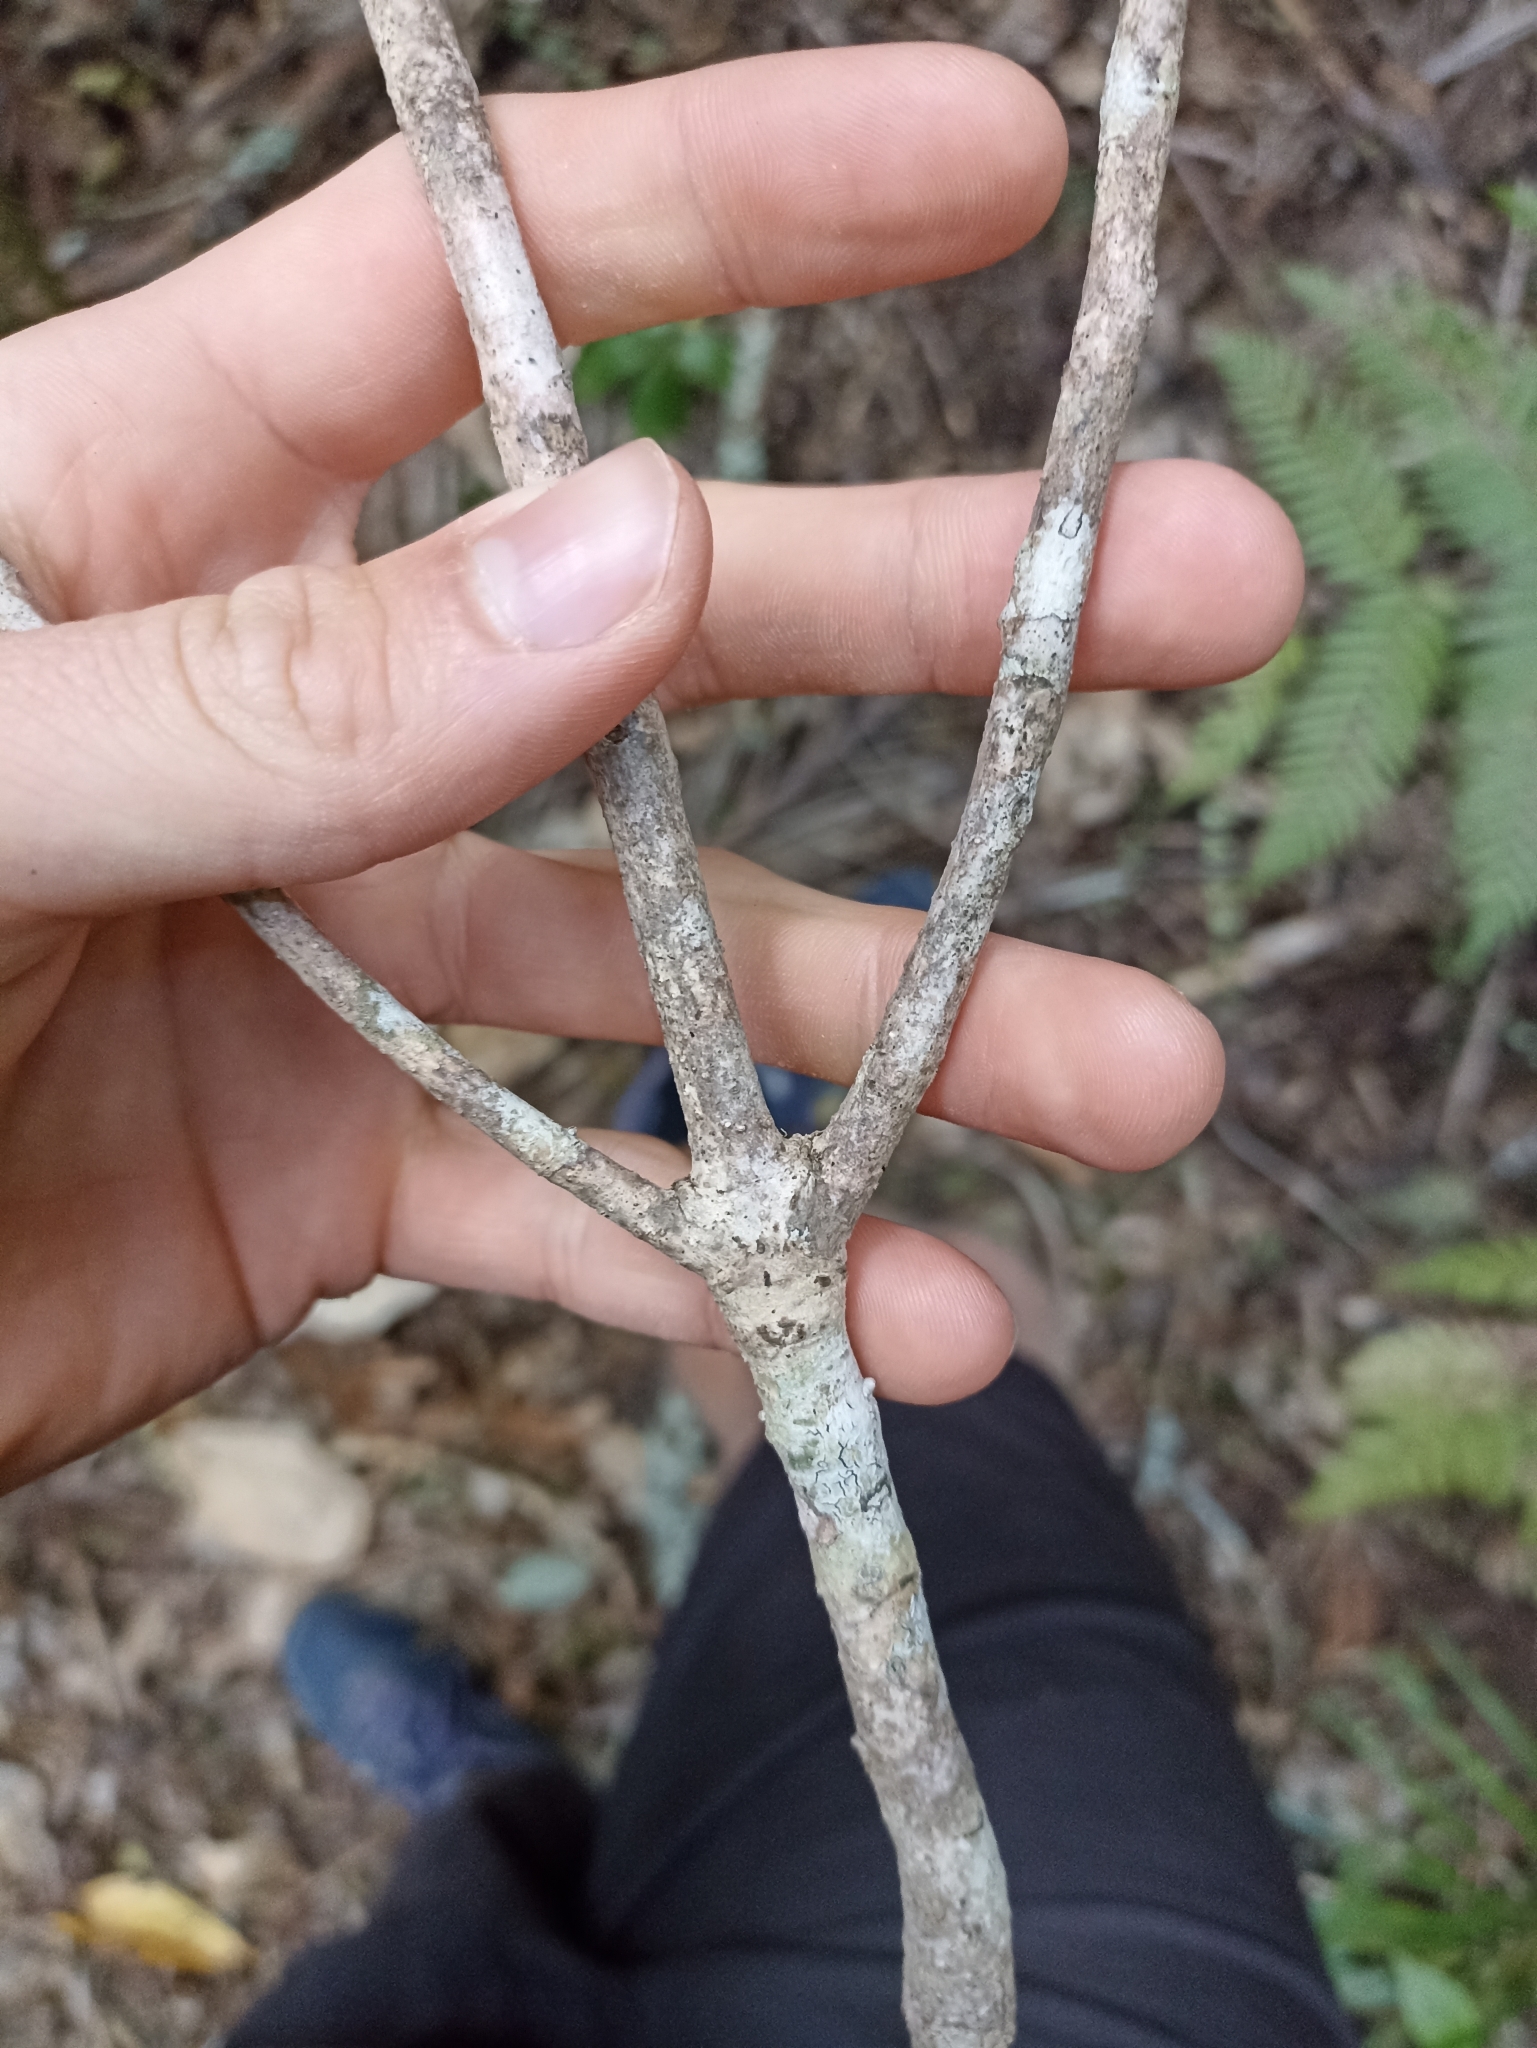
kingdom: Plantae
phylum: Tracheophyta
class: Magnoliopsida
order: Lamiales
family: Oleaceae
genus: Nestegis
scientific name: Nestegis lanceolata
